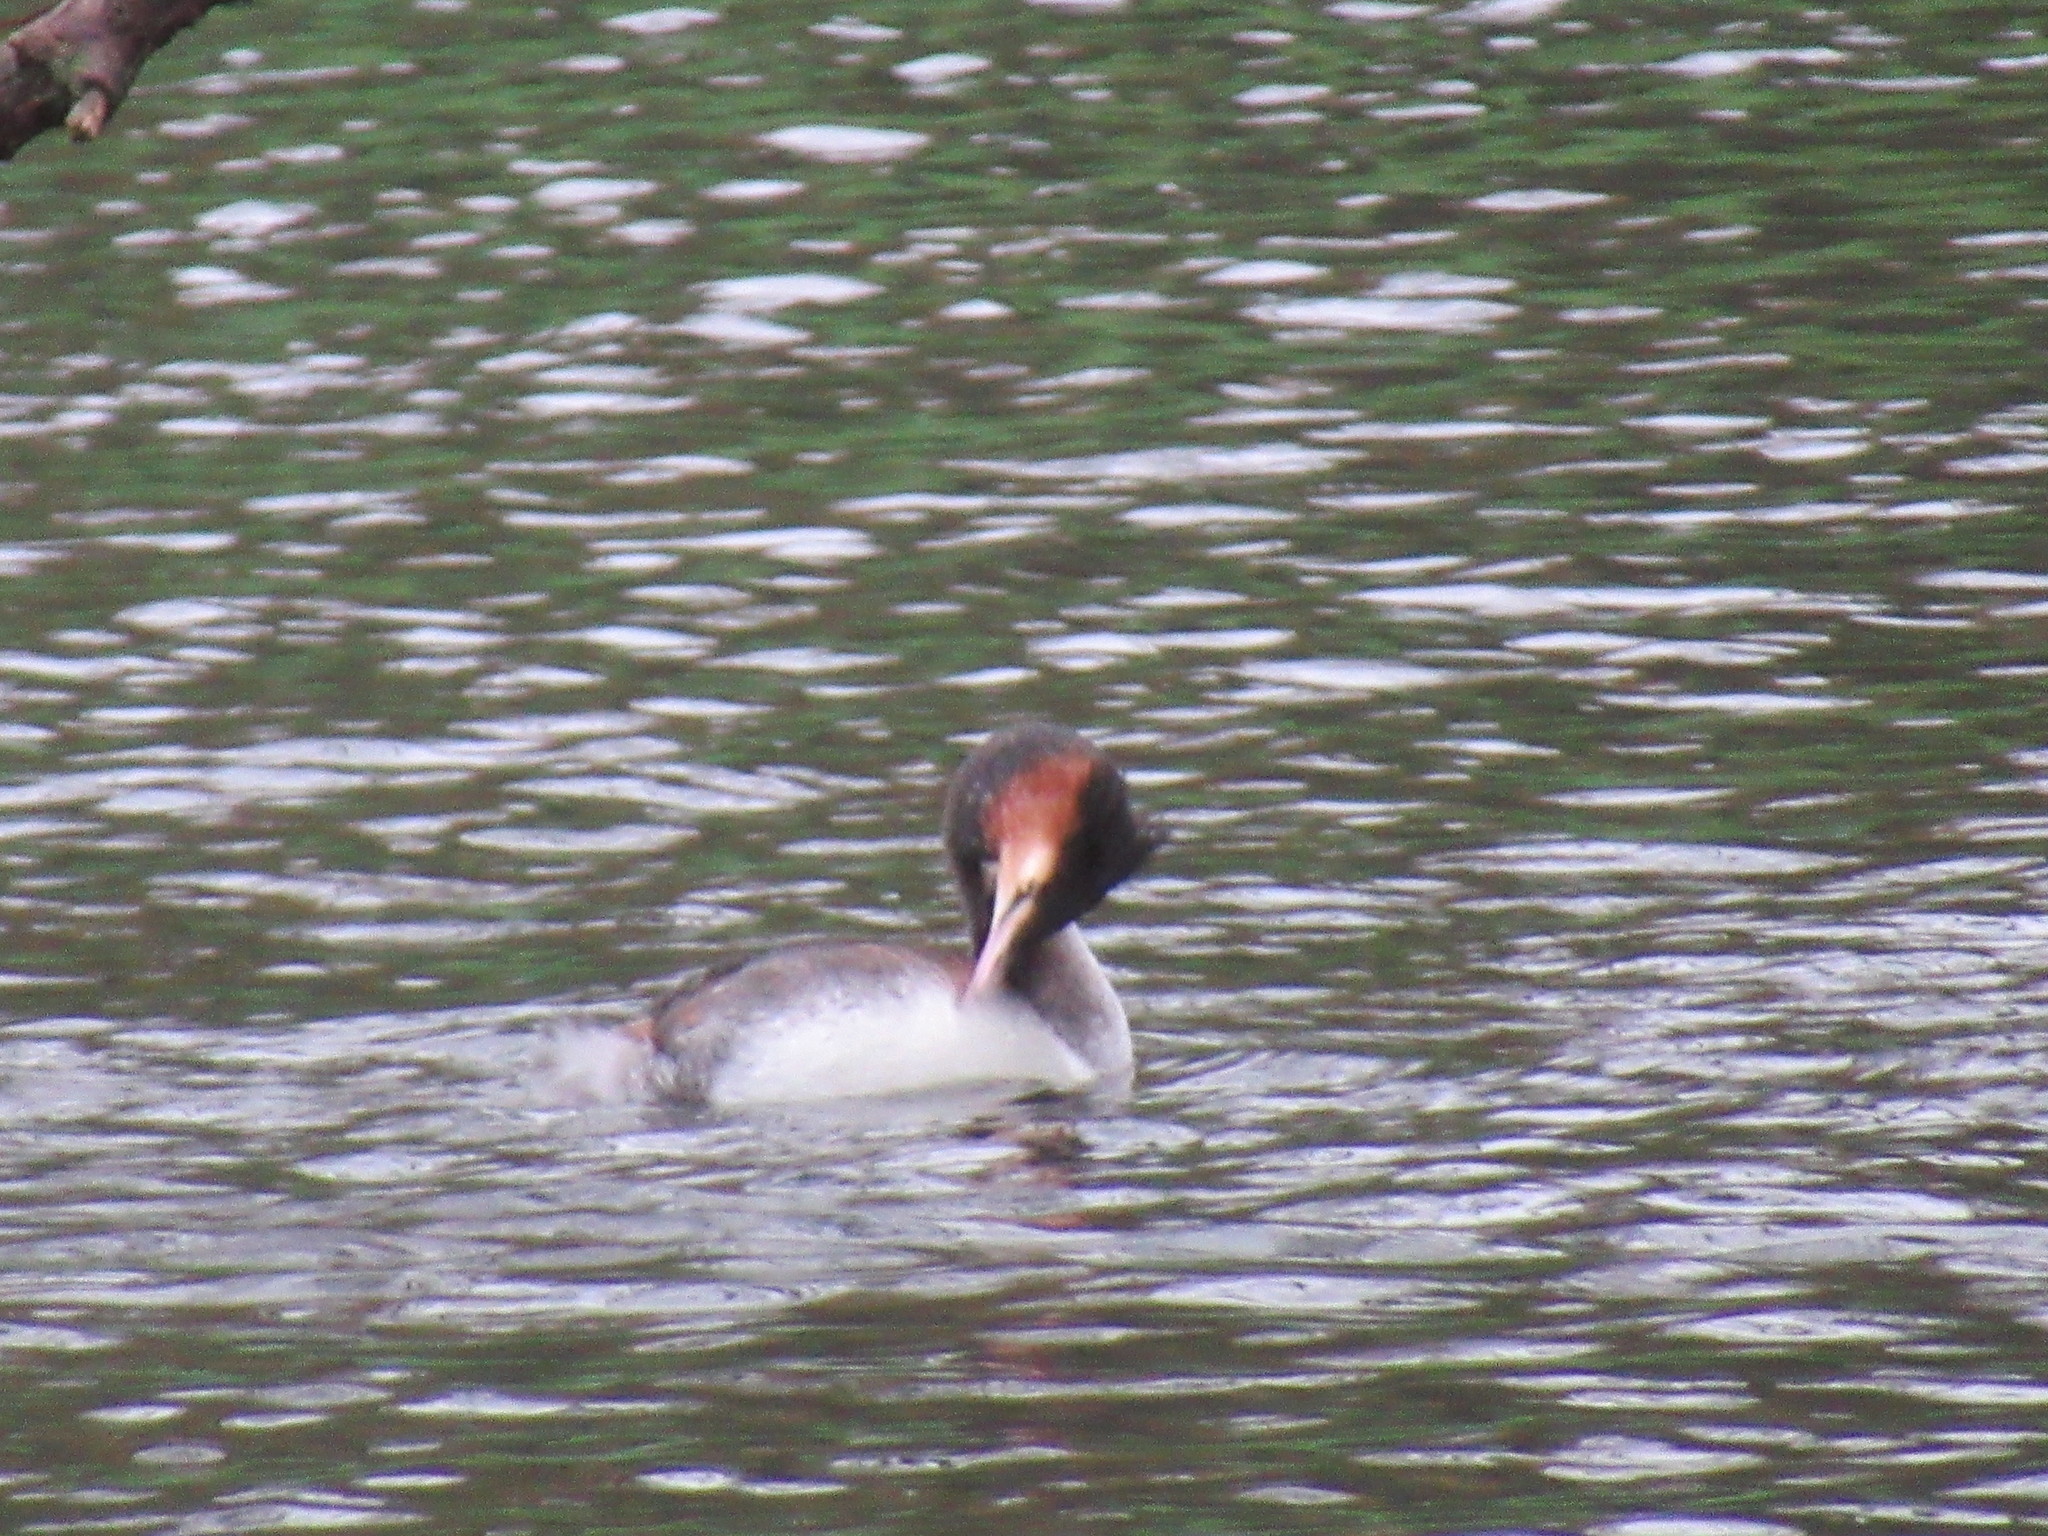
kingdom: Animalia
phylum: Chordata
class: Aves
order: Podicipediformes
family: Podicipedidae
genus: Podiceps
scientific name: Podiceps cristatus
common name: Great crested grebe
